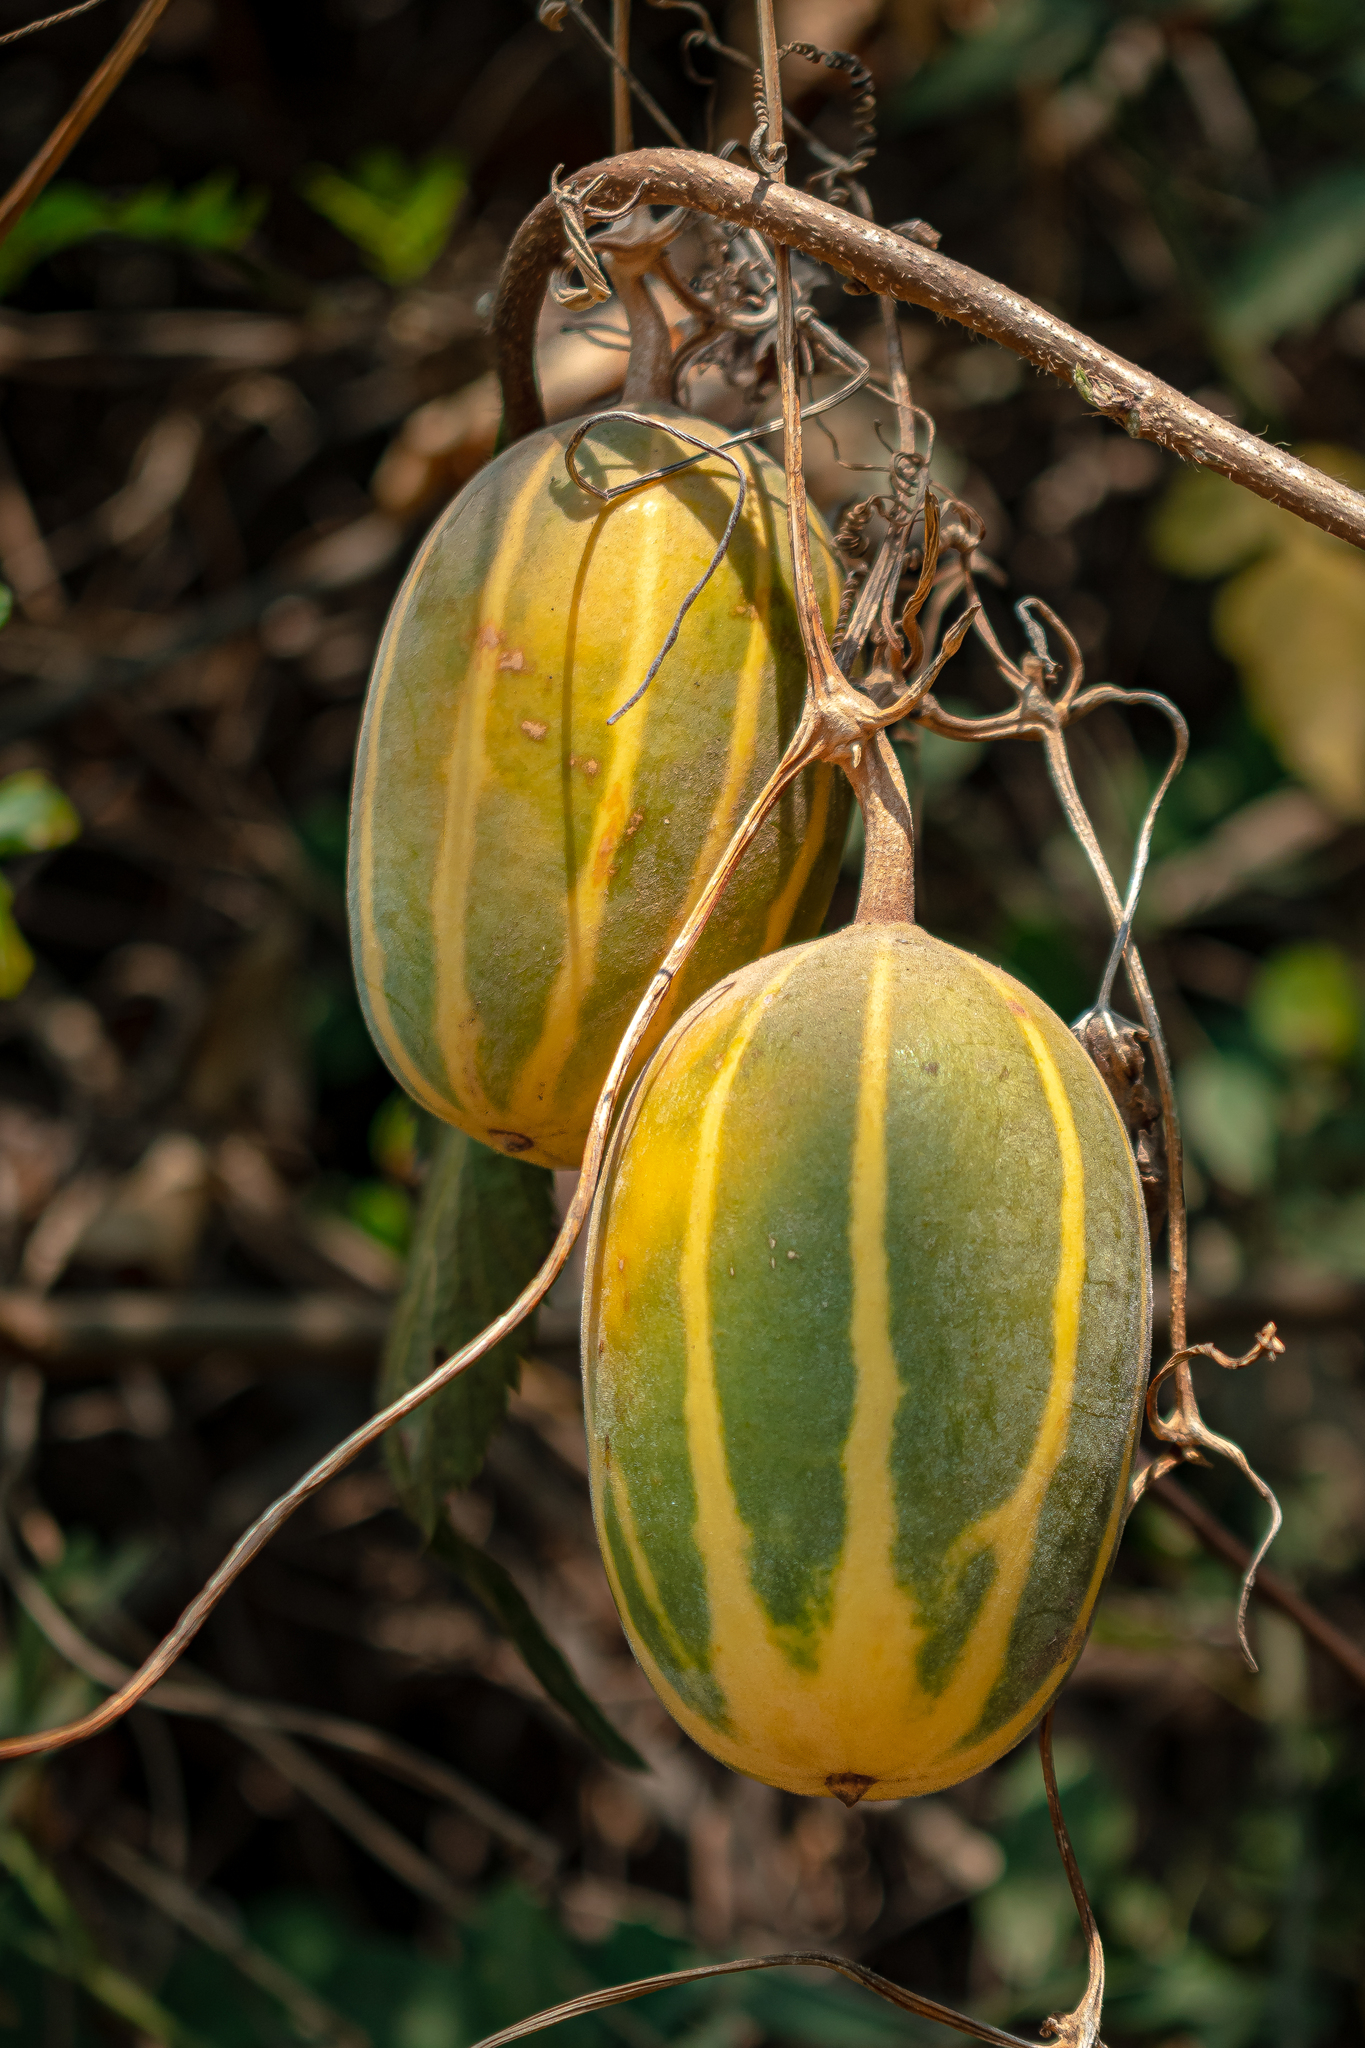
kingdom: Plantae
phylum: Tracheophyta
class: Magnoliopsida
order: Cucurbitales
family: Cucurbitaceae
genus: Polyclathra
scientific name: Polyclathra cucumerina
